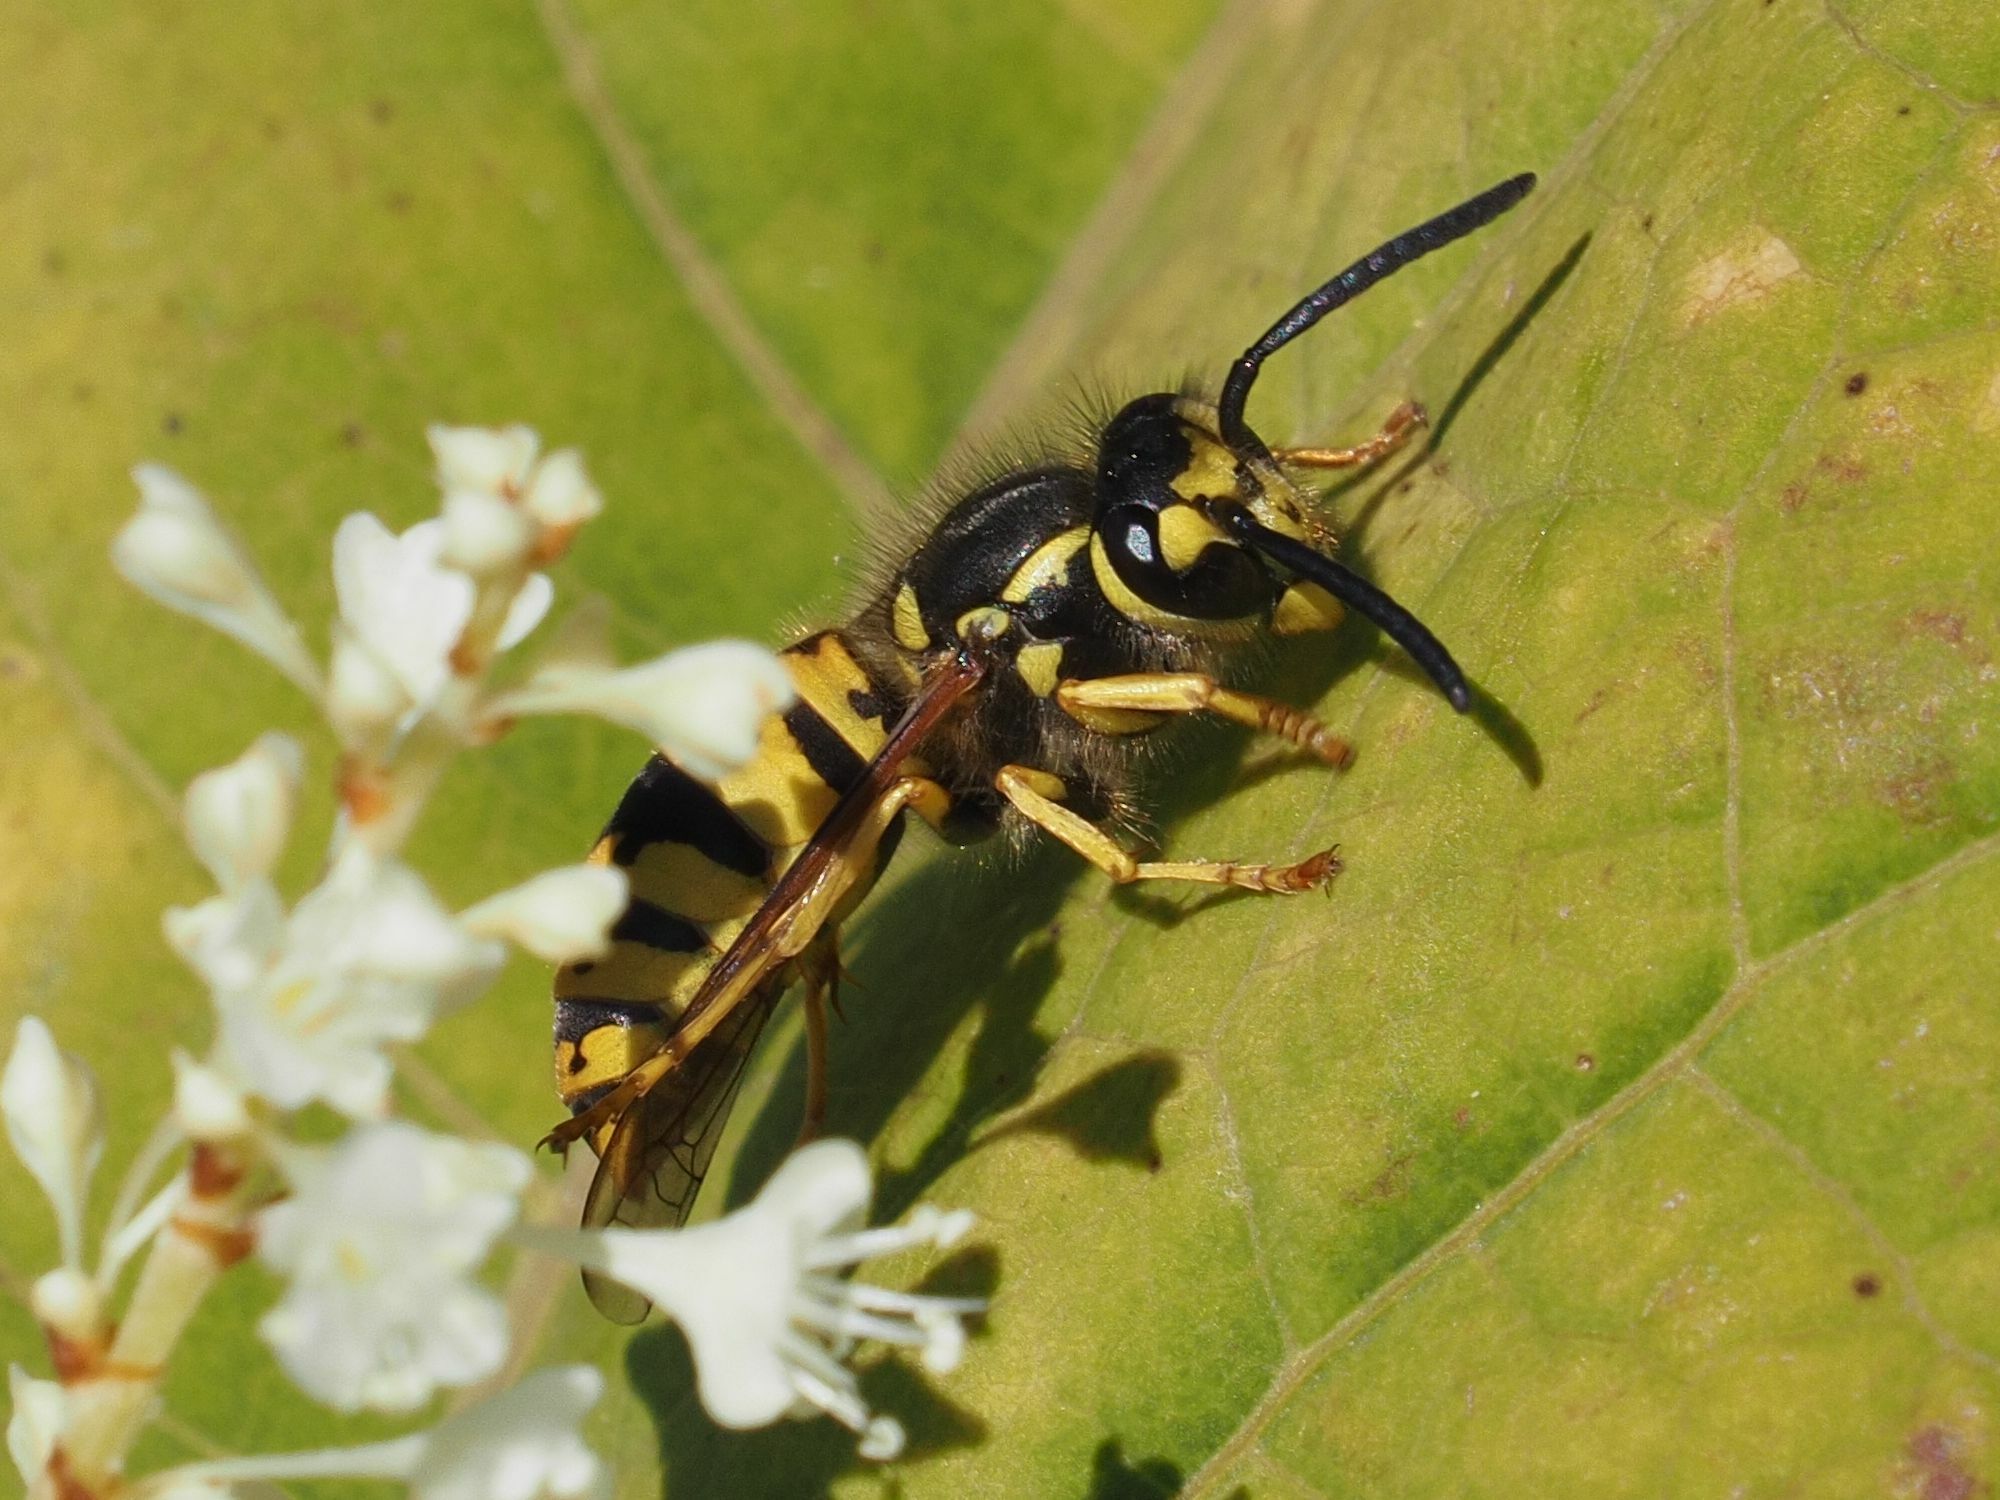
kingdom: Animalia
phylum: Arthropoda
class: Insecta
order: Hymenoptera
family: Vespidae
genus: Vespula
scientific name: Vespula germanica
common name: German wasp
